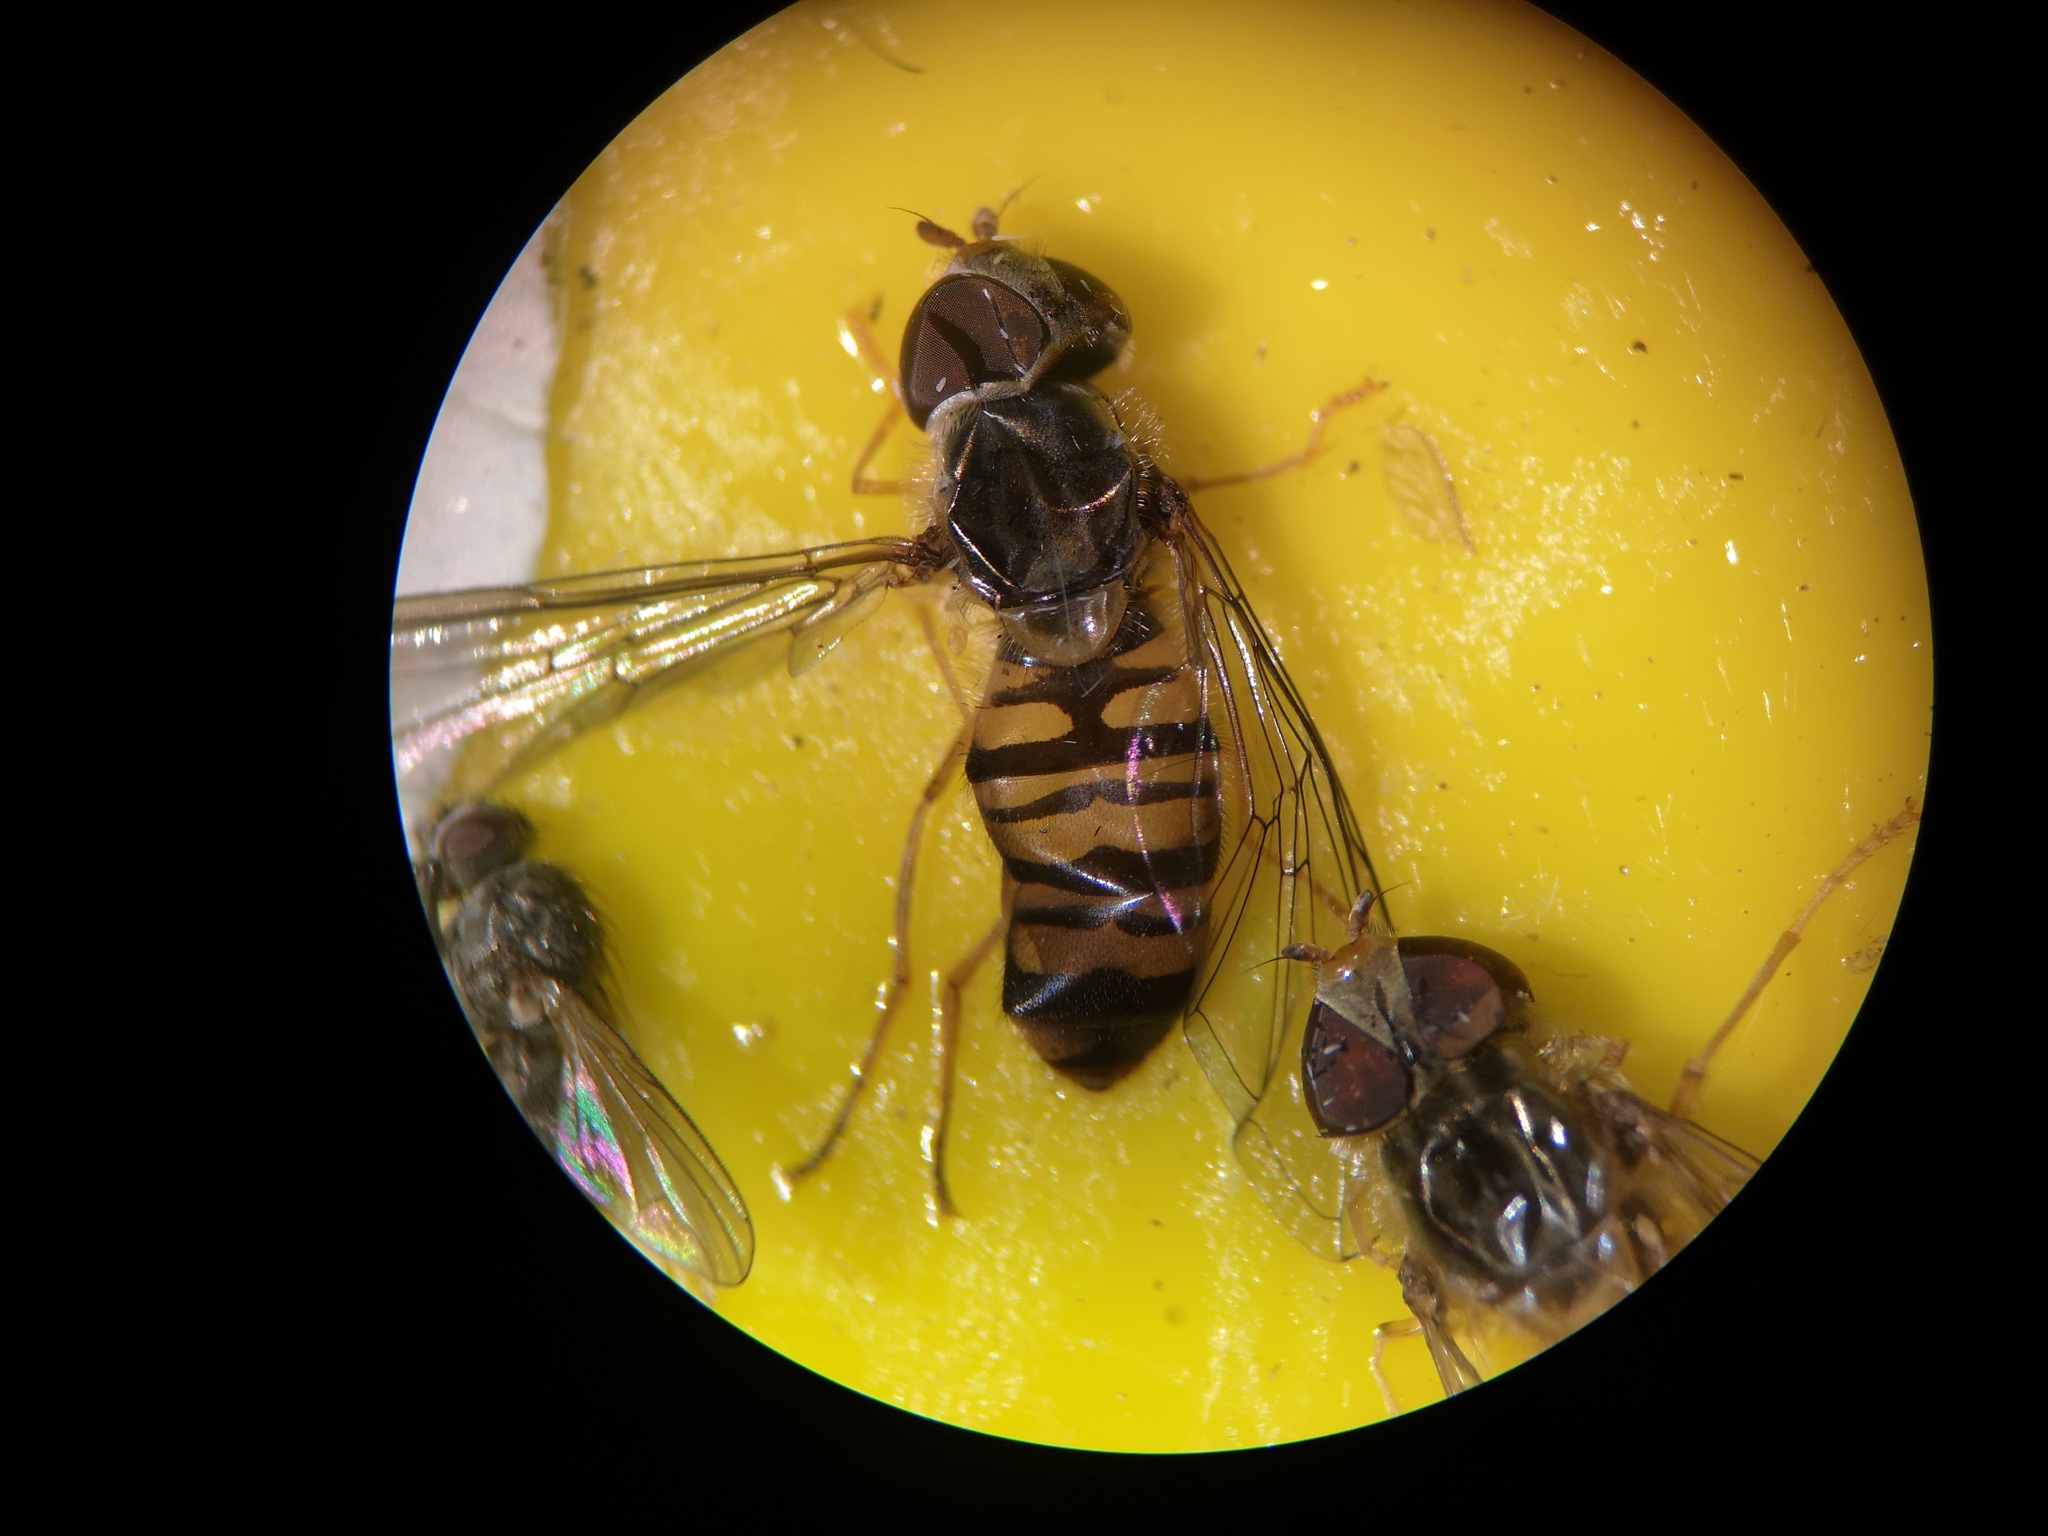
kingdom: Animalia
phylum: Arthropoda
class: Insecta
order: Diptera
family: Syrphidae
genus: Episyrphus
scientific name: Episyrphus balteatus
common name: Marmalade hoverfly
